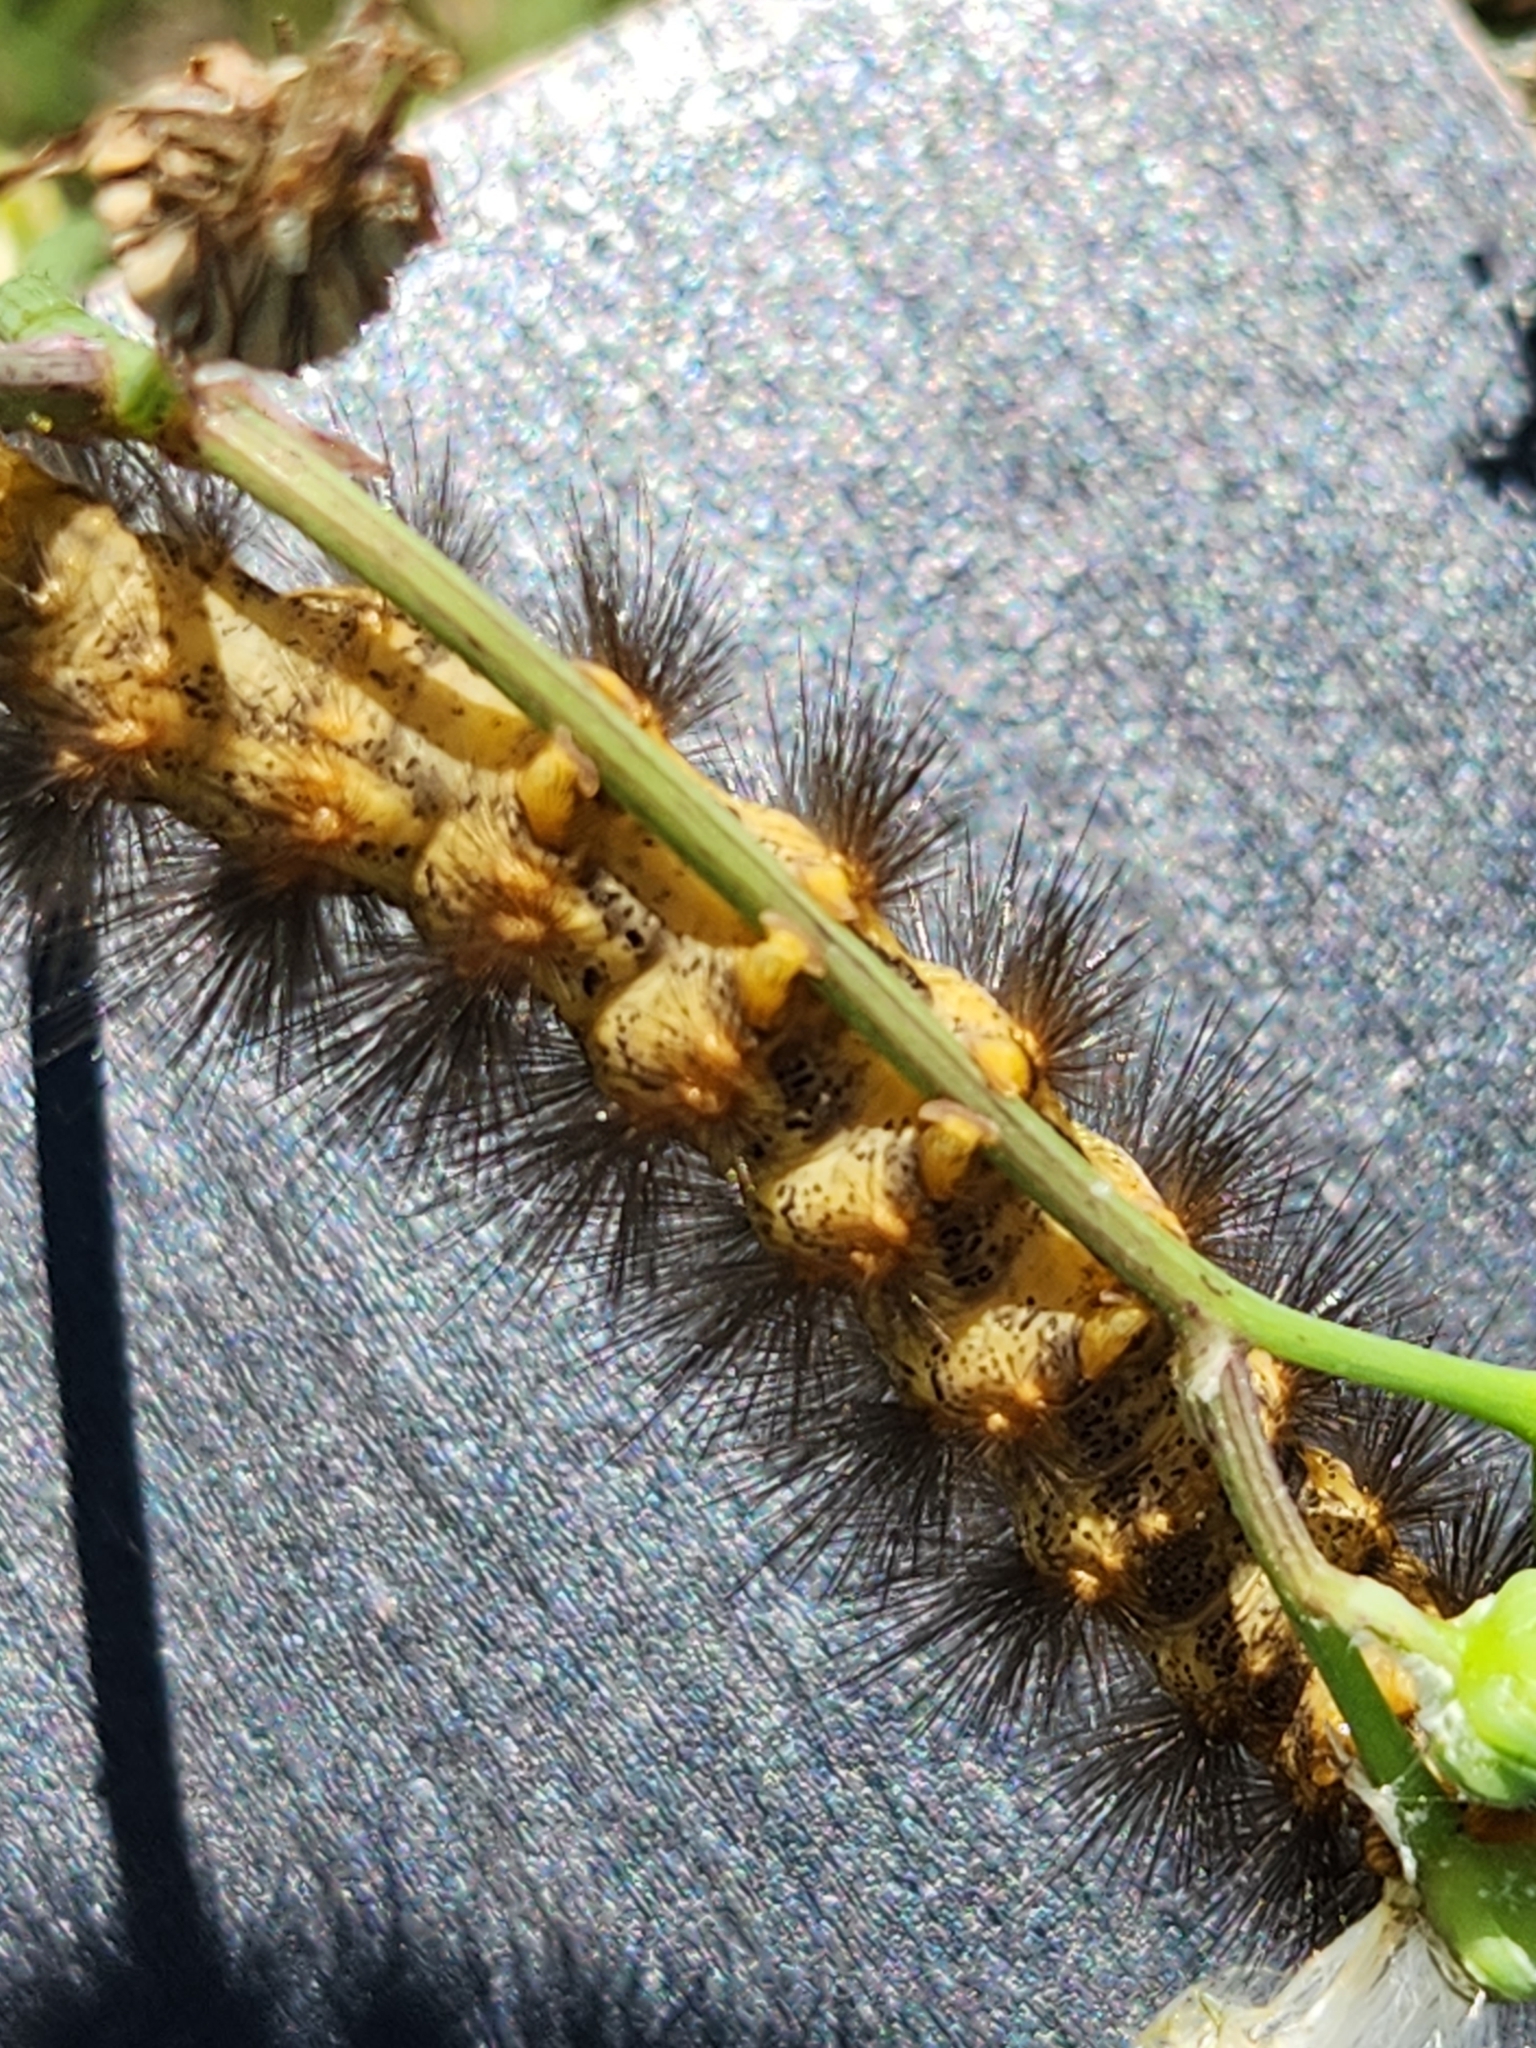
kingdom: Animalia
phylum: Arthropoda
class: Insecta
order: Lepidoptera
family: Erebidae
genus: Estigmene
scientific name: Estigmene acrea
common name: Salt marsh moth
